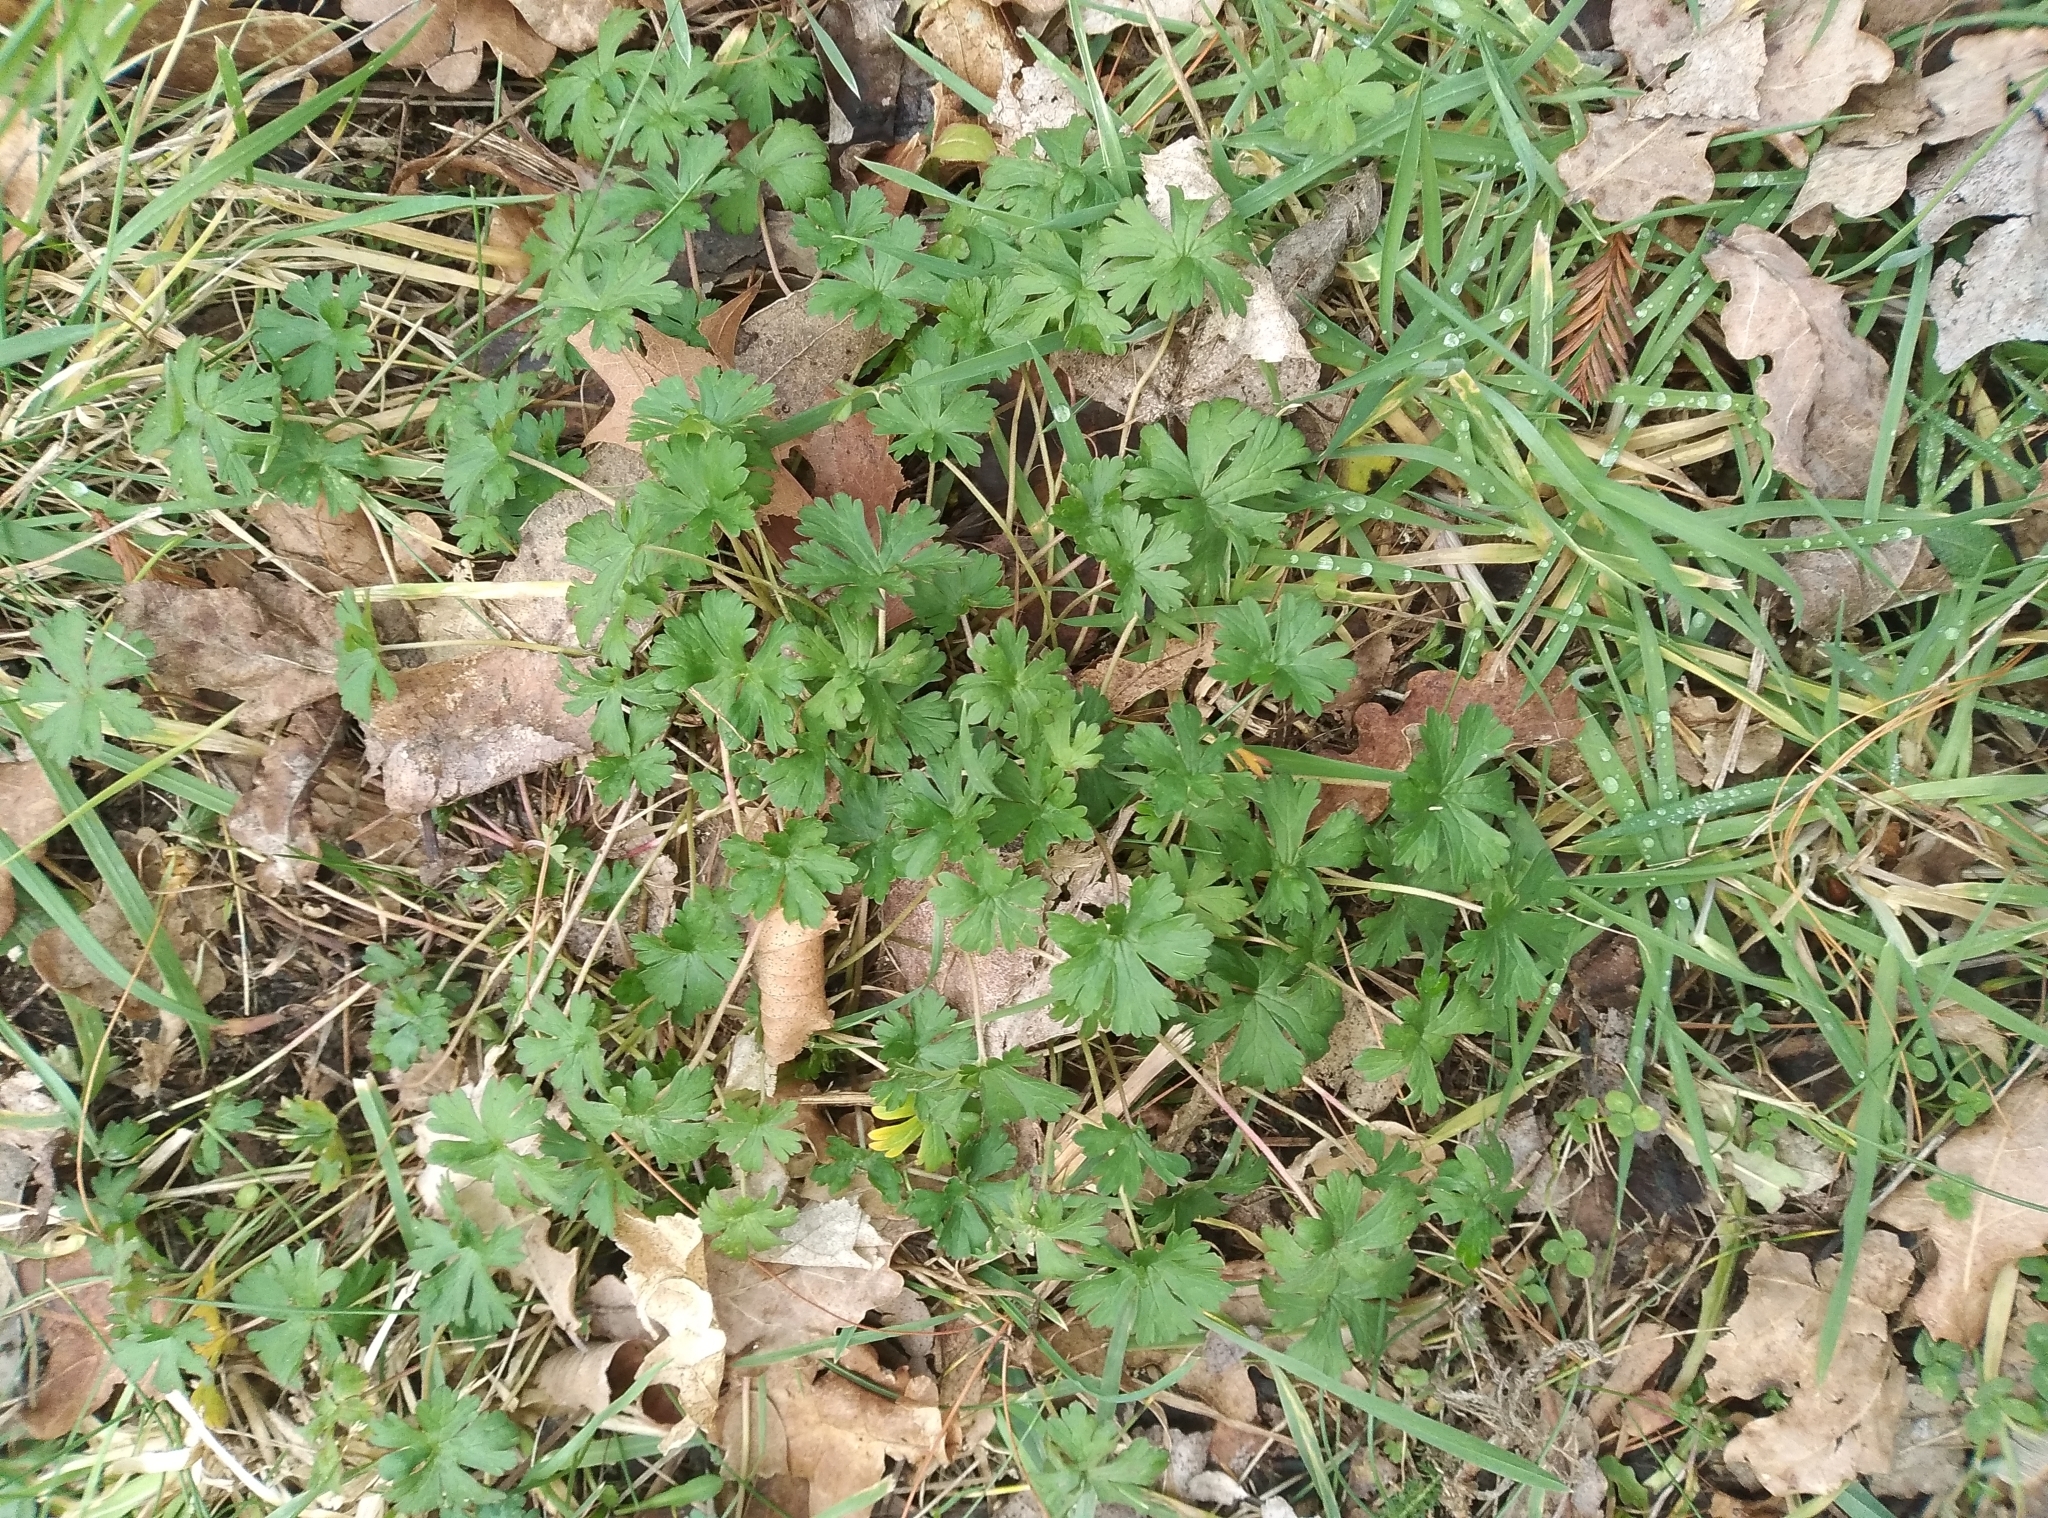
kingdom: Plantae
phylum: Tracheophyta
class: Magnoliopsida
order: Geraniales
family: Geraniaceae
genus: Geranium
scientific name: Geranium retrorsum
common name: New zealand geranium
